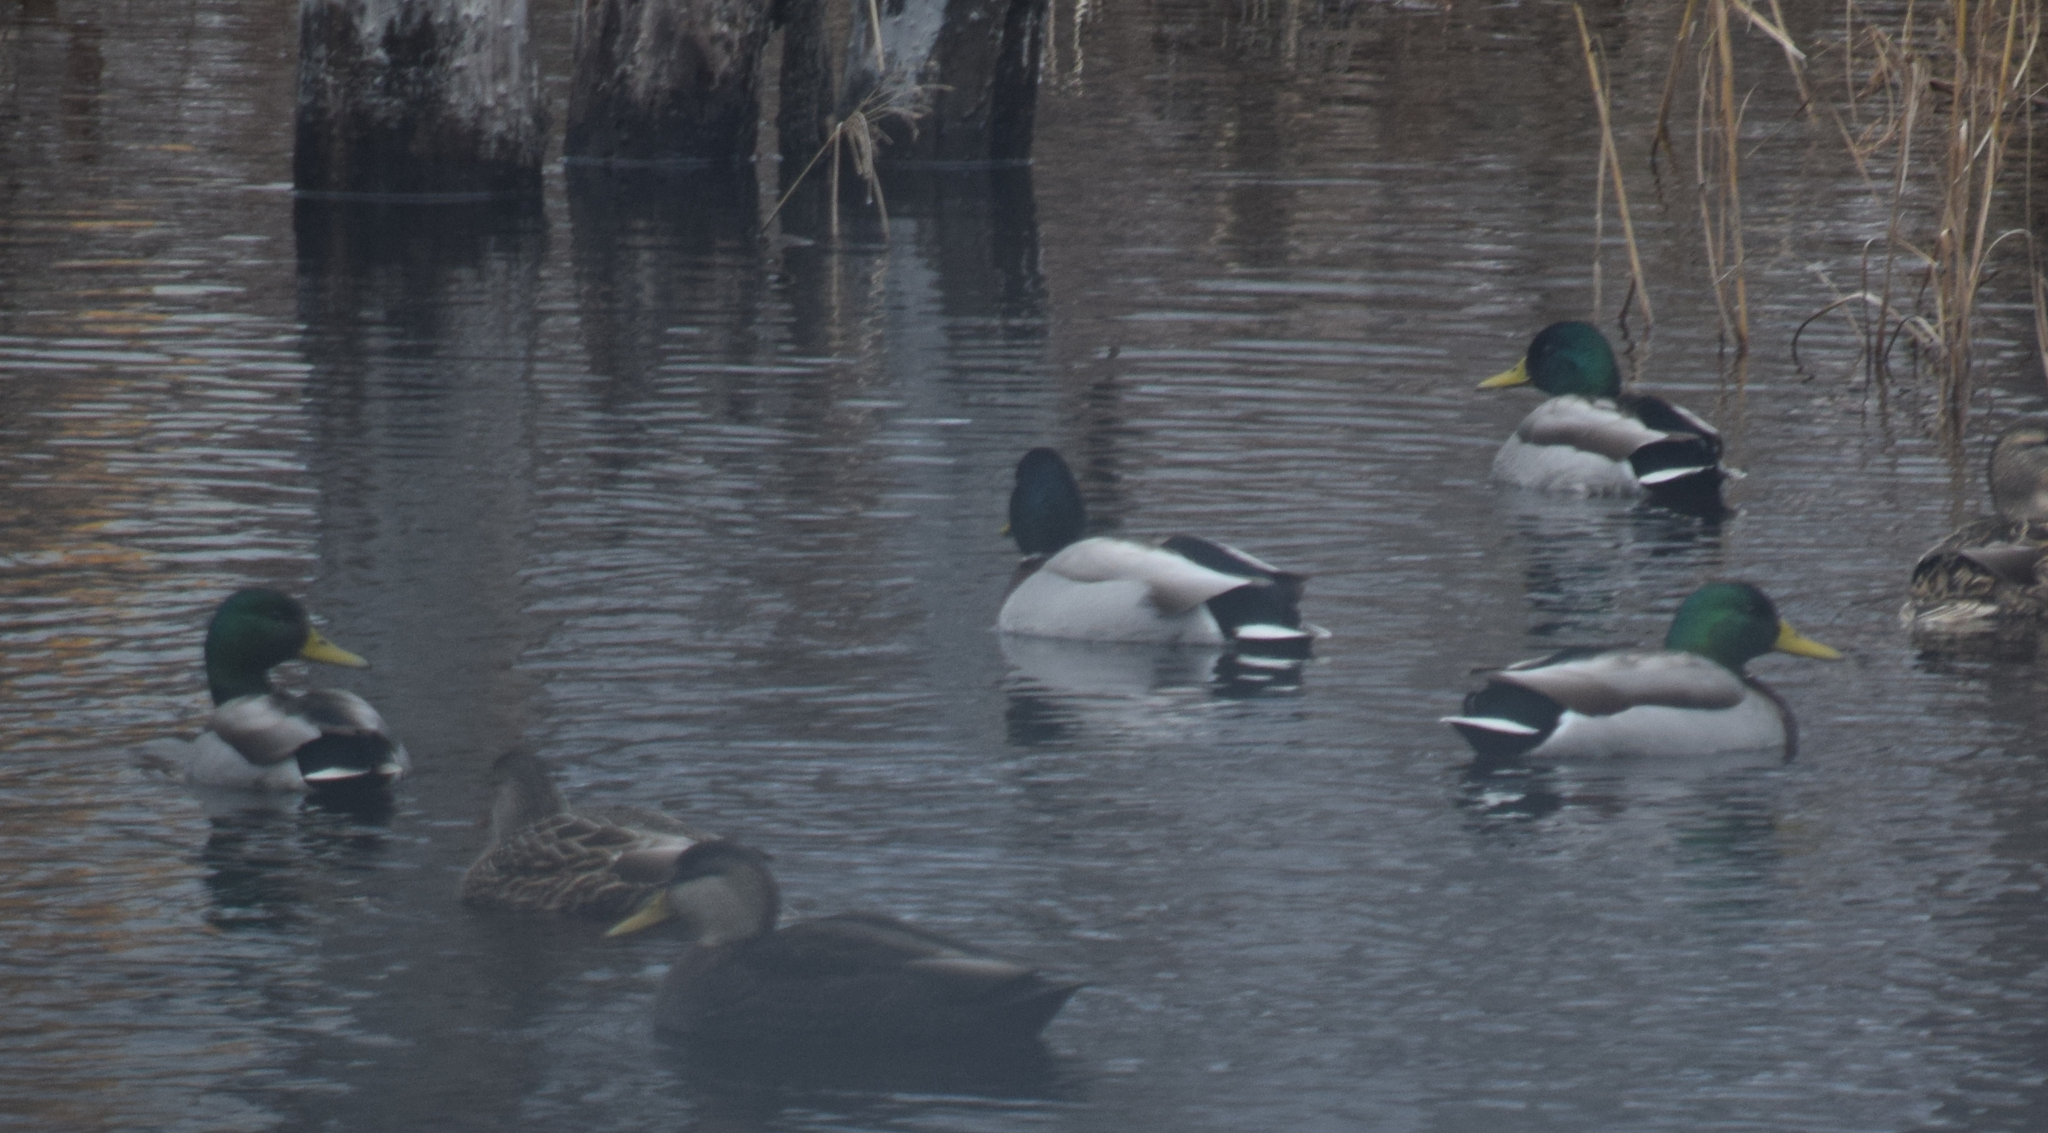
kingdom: Animalia
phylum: Chordata
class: Aves
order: Anseriformes
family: Anatidae
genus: Anas
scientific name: Anas platyrhynchos
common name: Mallard
